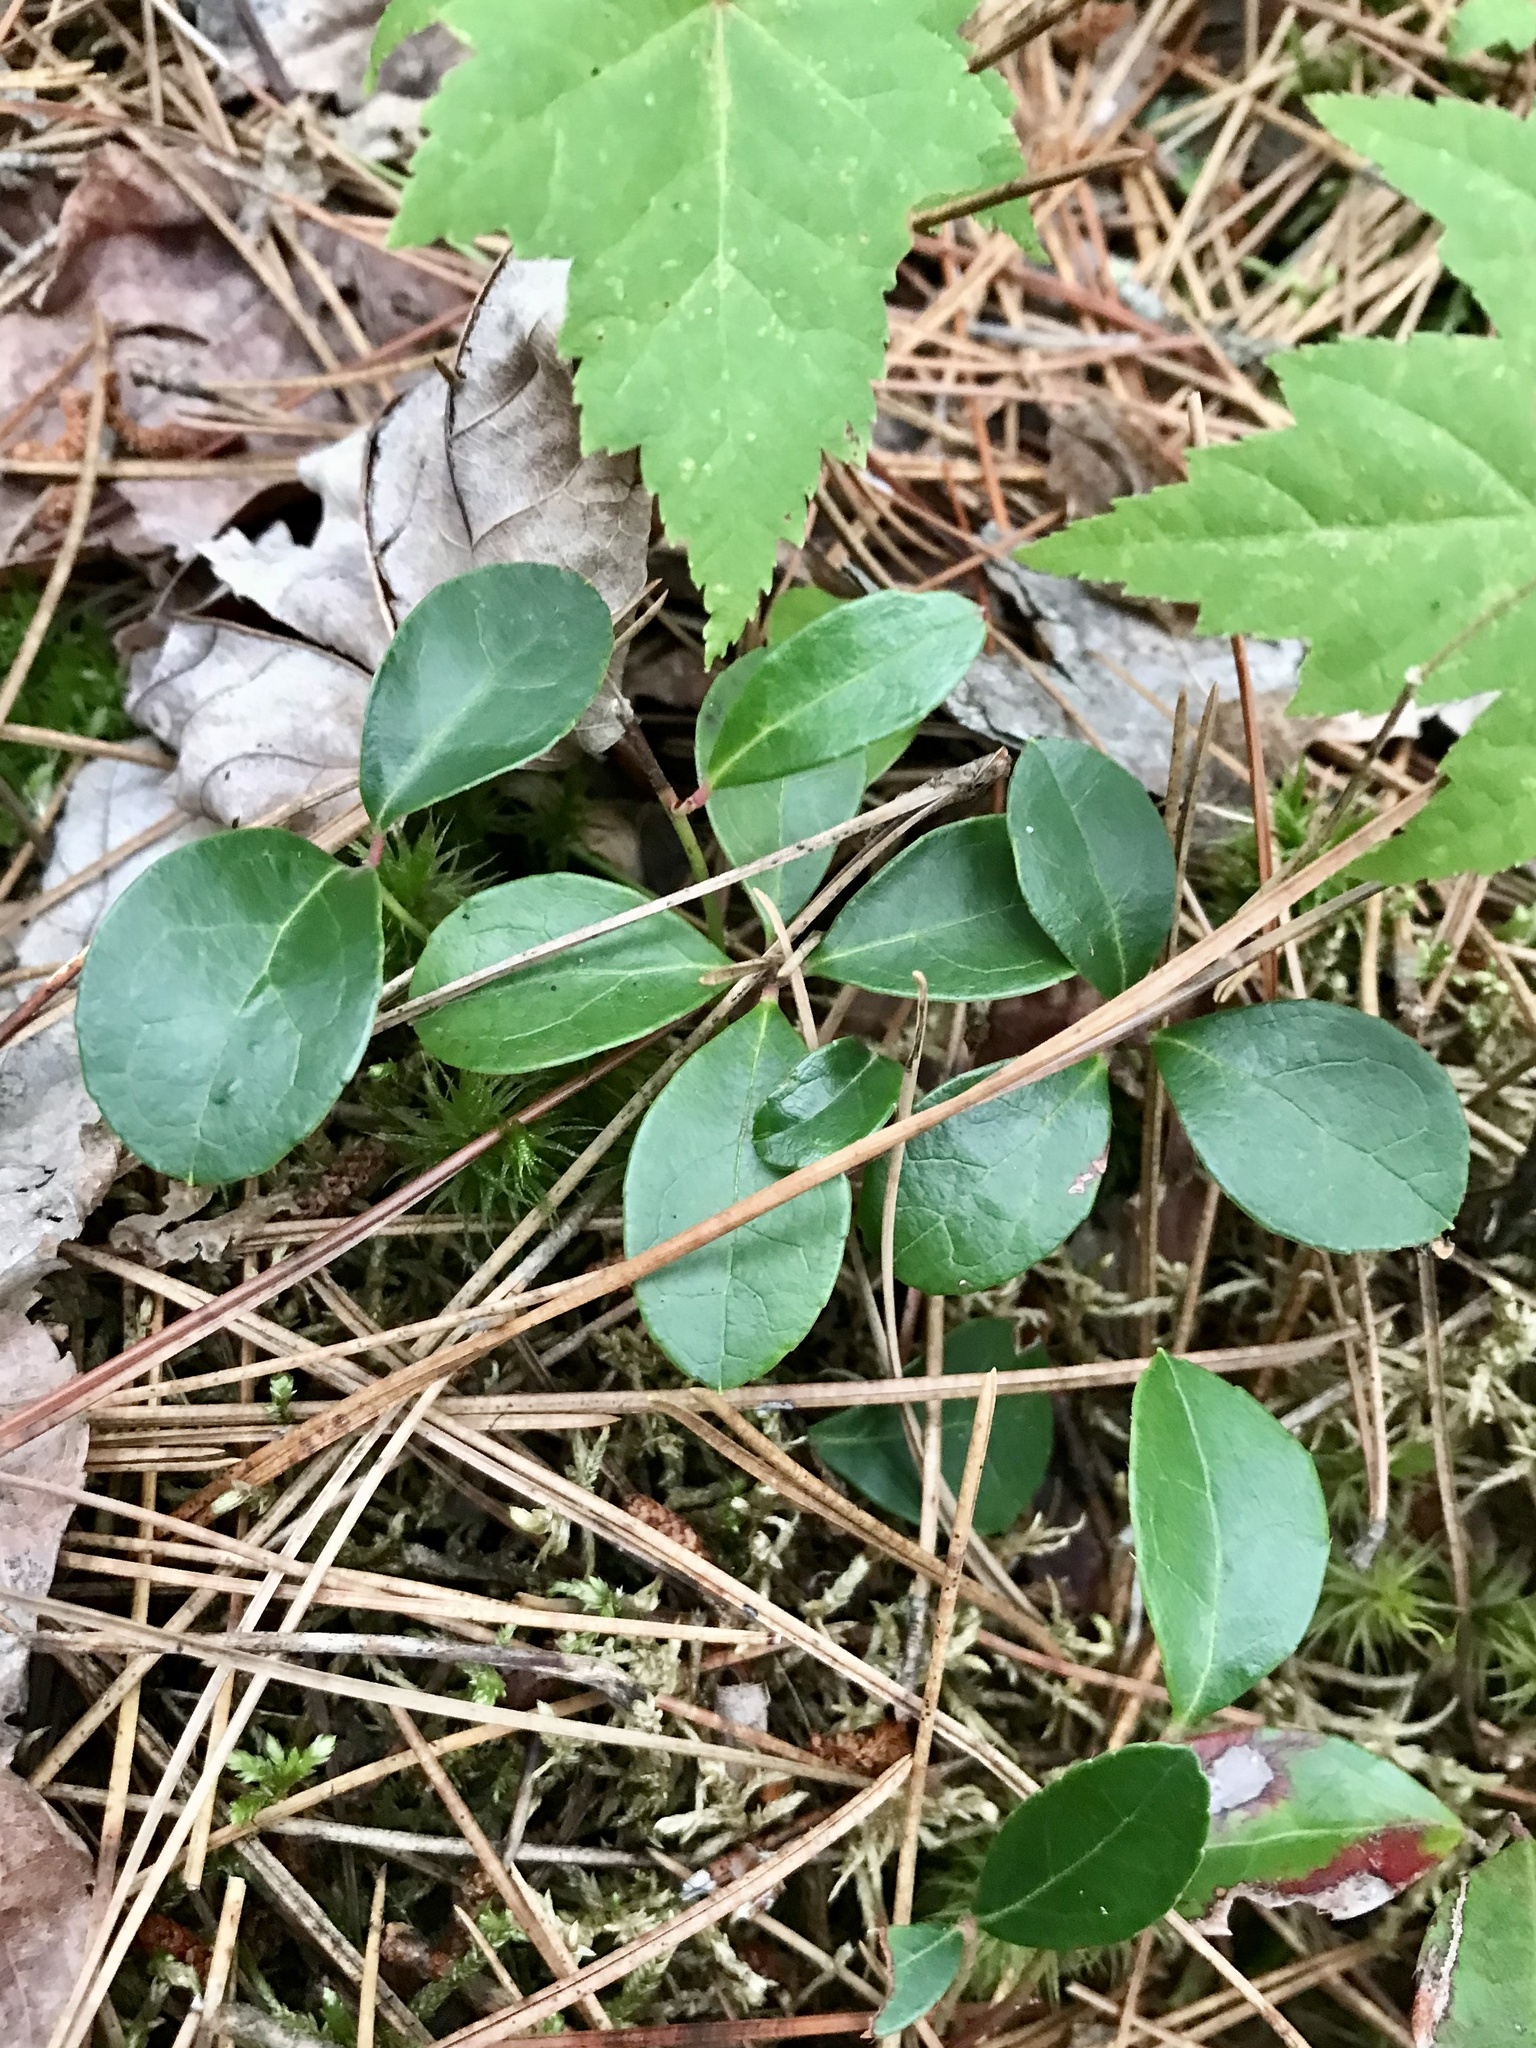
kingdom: Plantae
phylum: Tracheophyta
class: Magnoliopsida
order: Ericales
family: Ericaceae
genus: Gaultheria
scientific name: Gaultheria procumbens
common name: Checkerberry
